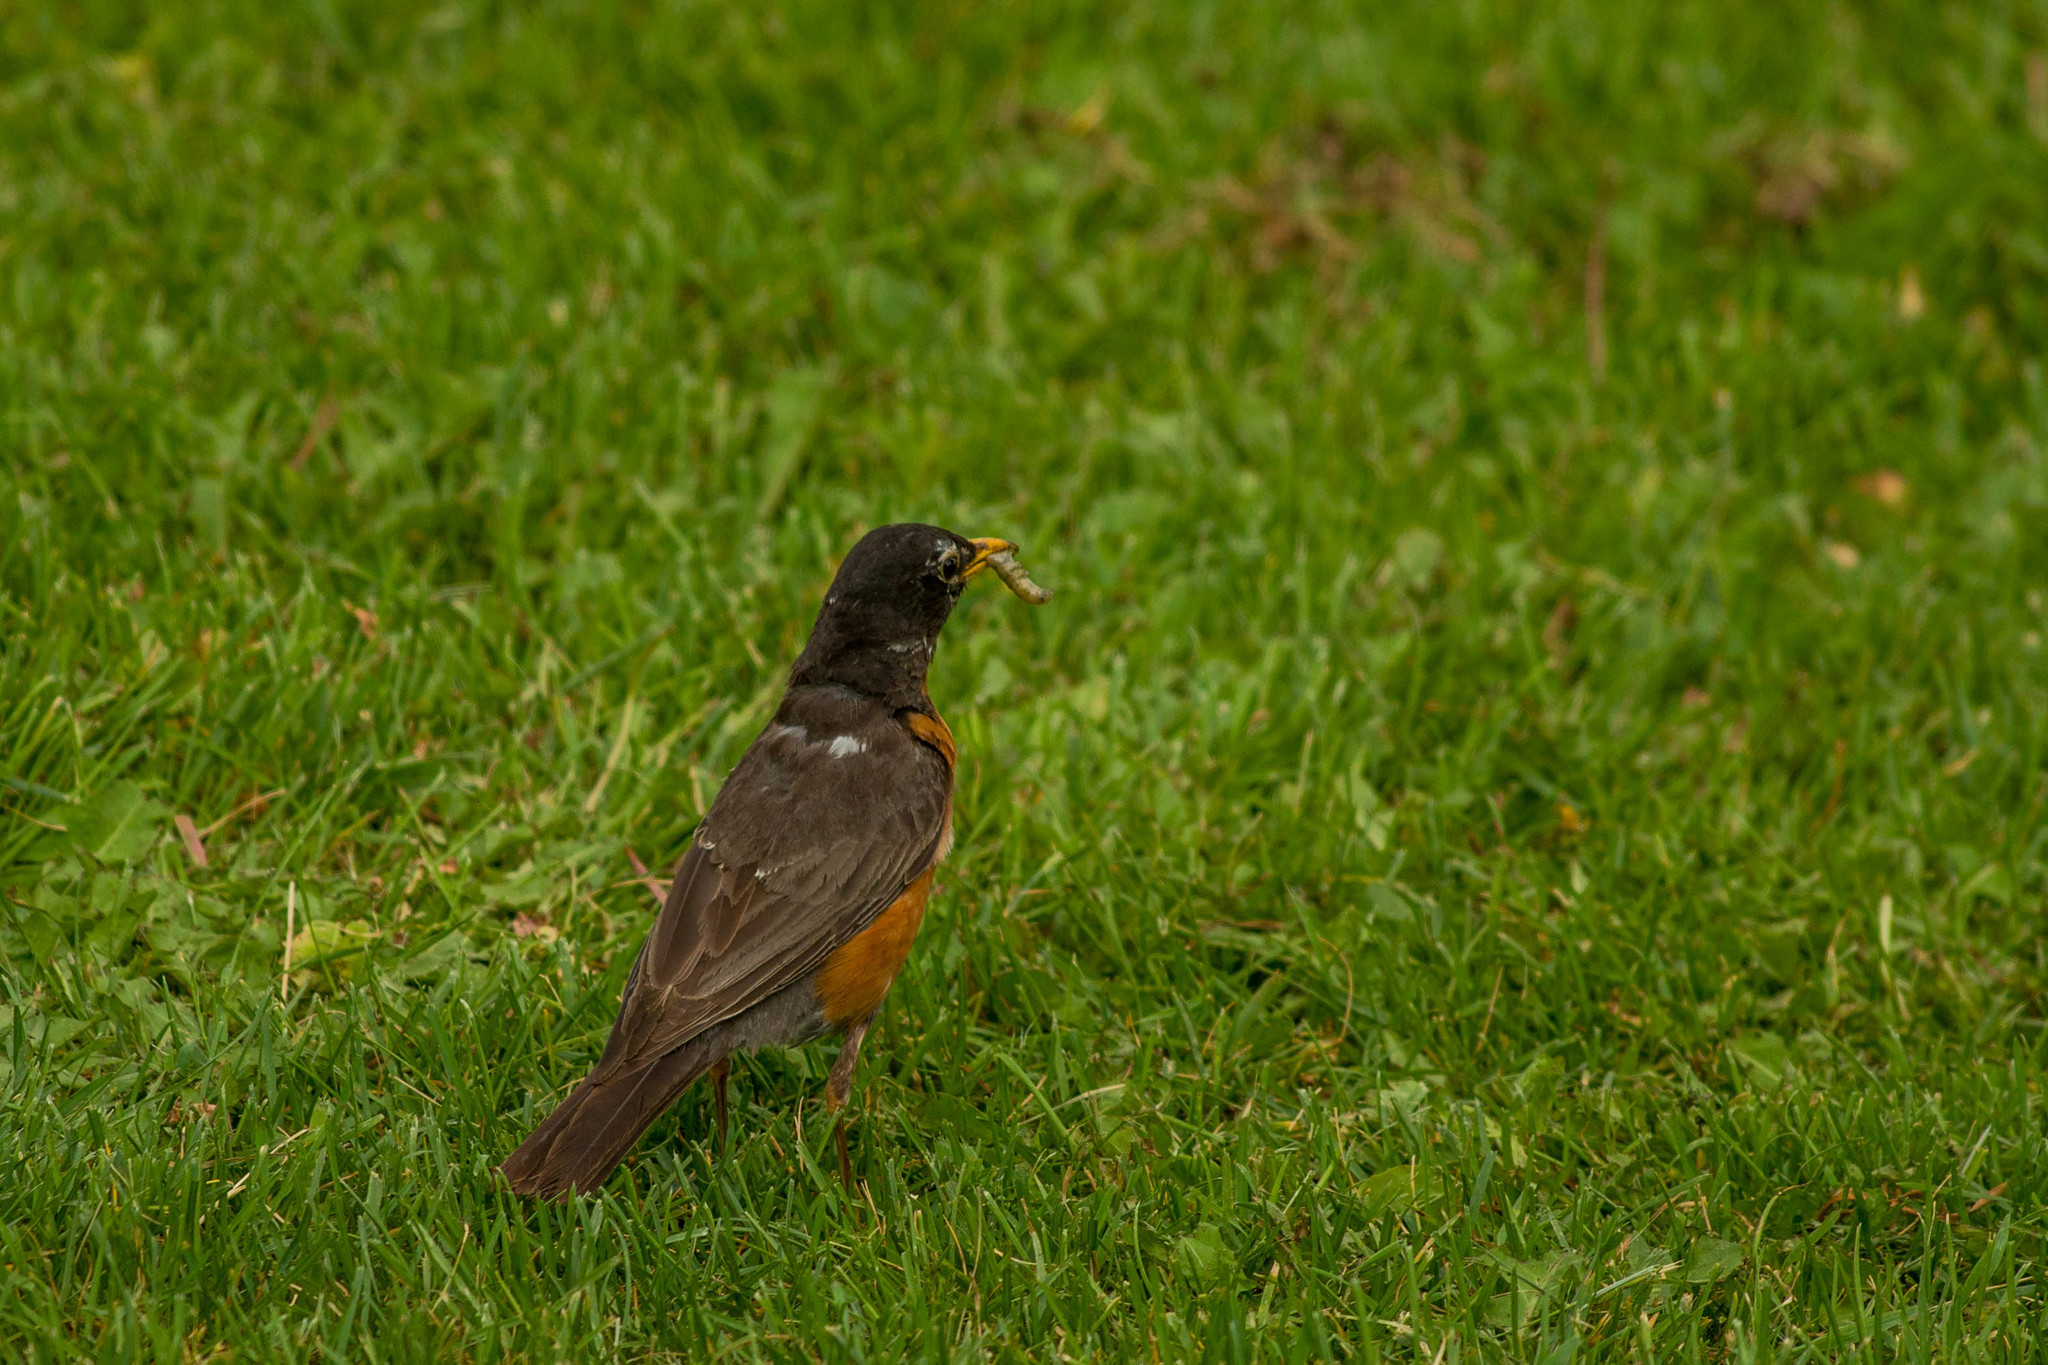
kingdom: Animalia
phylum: Chordata
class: Aves
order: Passeriformes
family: Turdidae
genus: Turdus
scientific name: Turdus migratorius
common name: American robin
